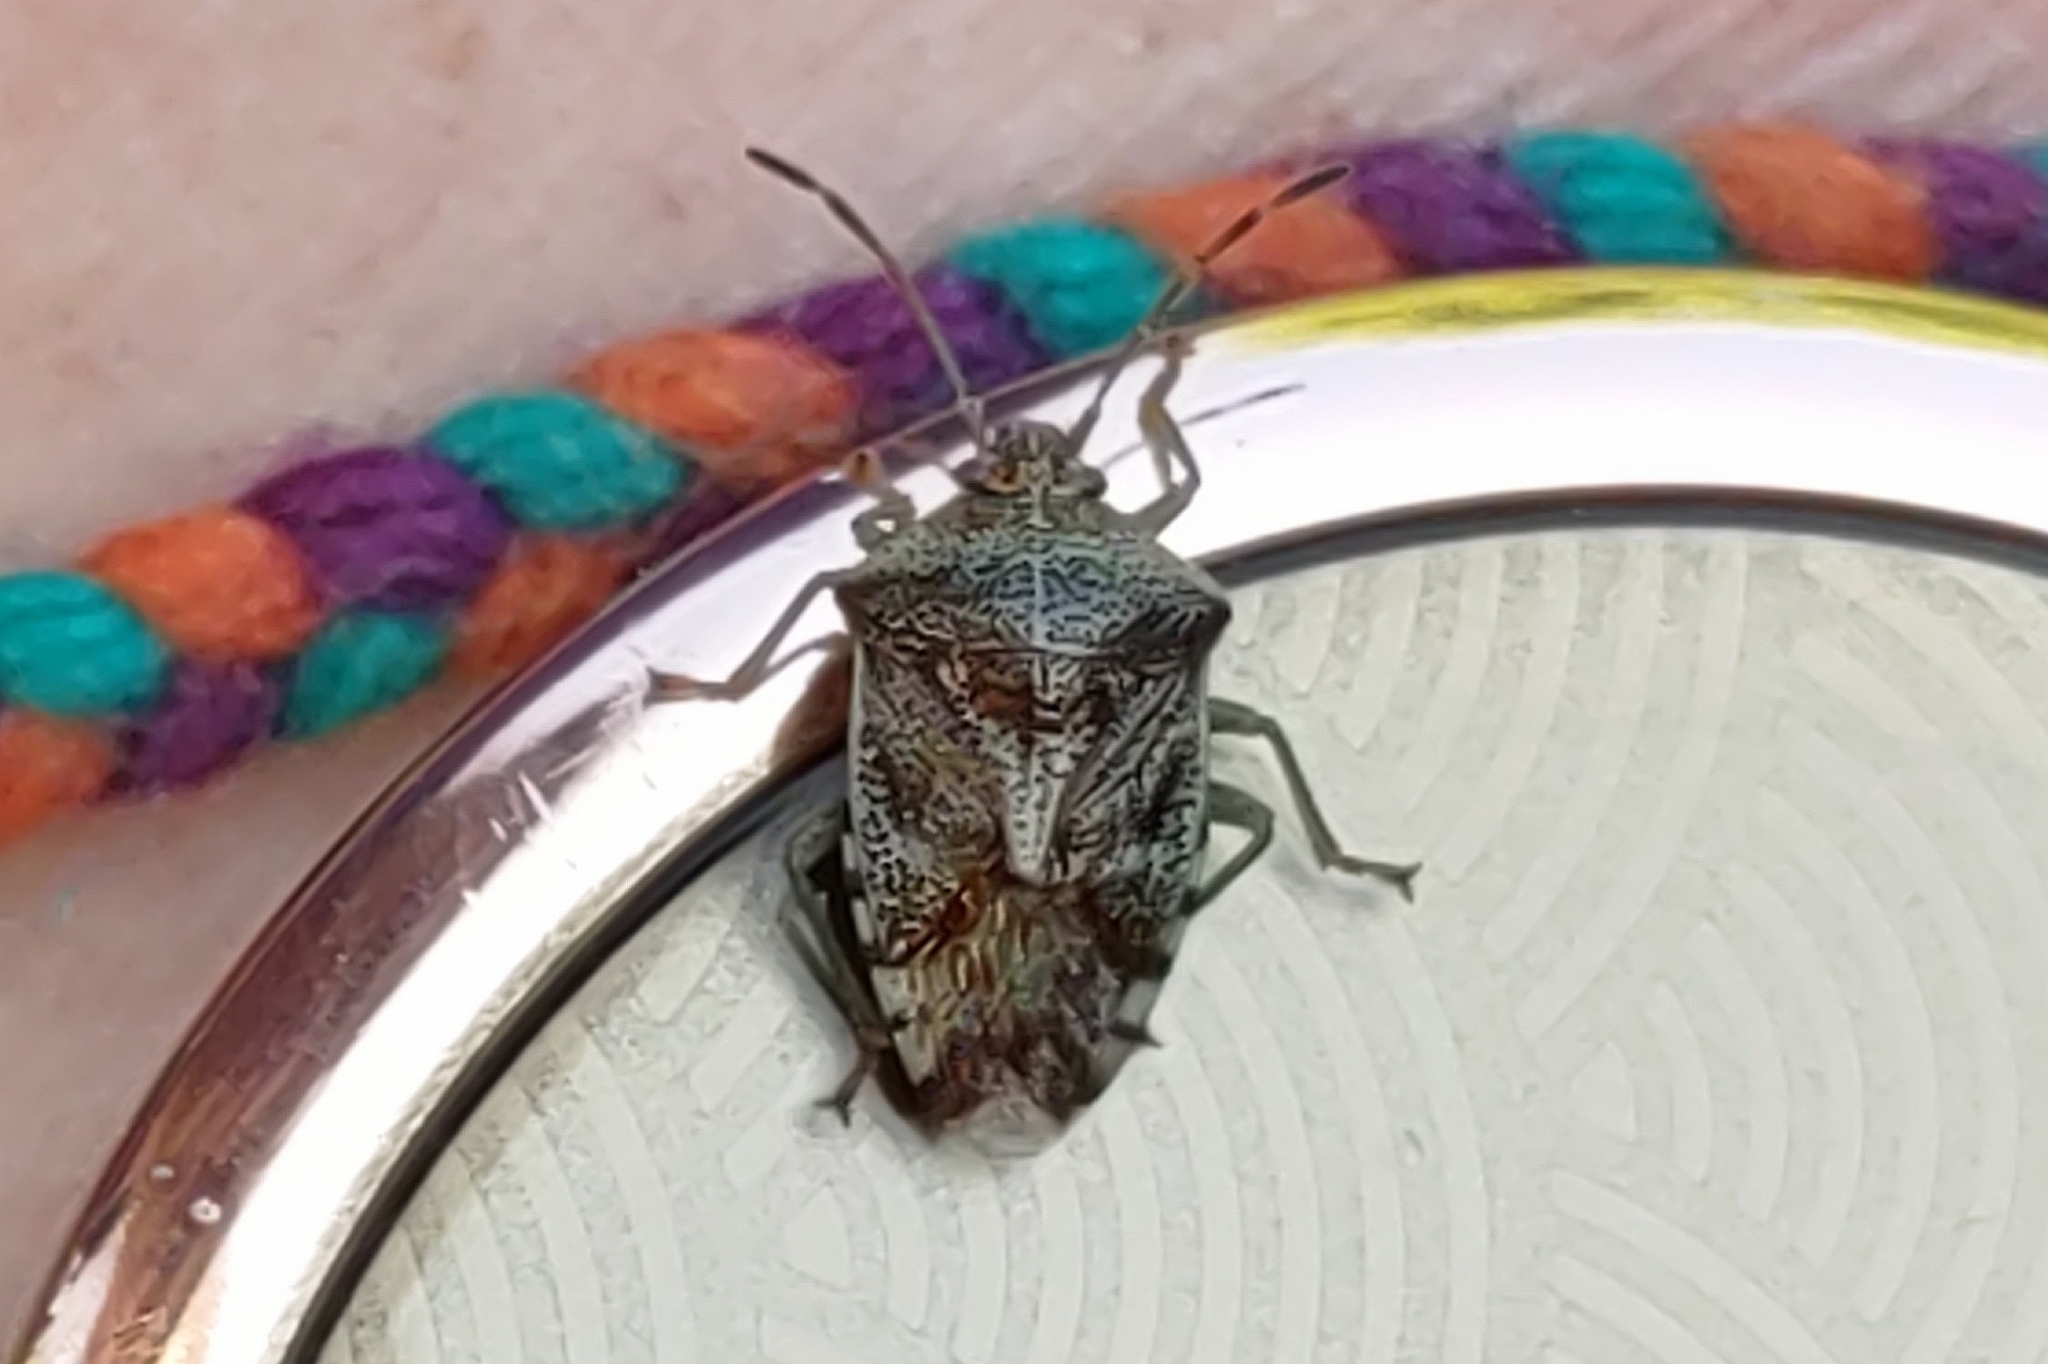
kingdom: Animalia
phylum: Arthropoda
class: Insecta
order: Hemiptera
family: Acanthosomatidae
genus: Elasmucha
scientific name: Elasmucha grisea
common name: Parent bug
